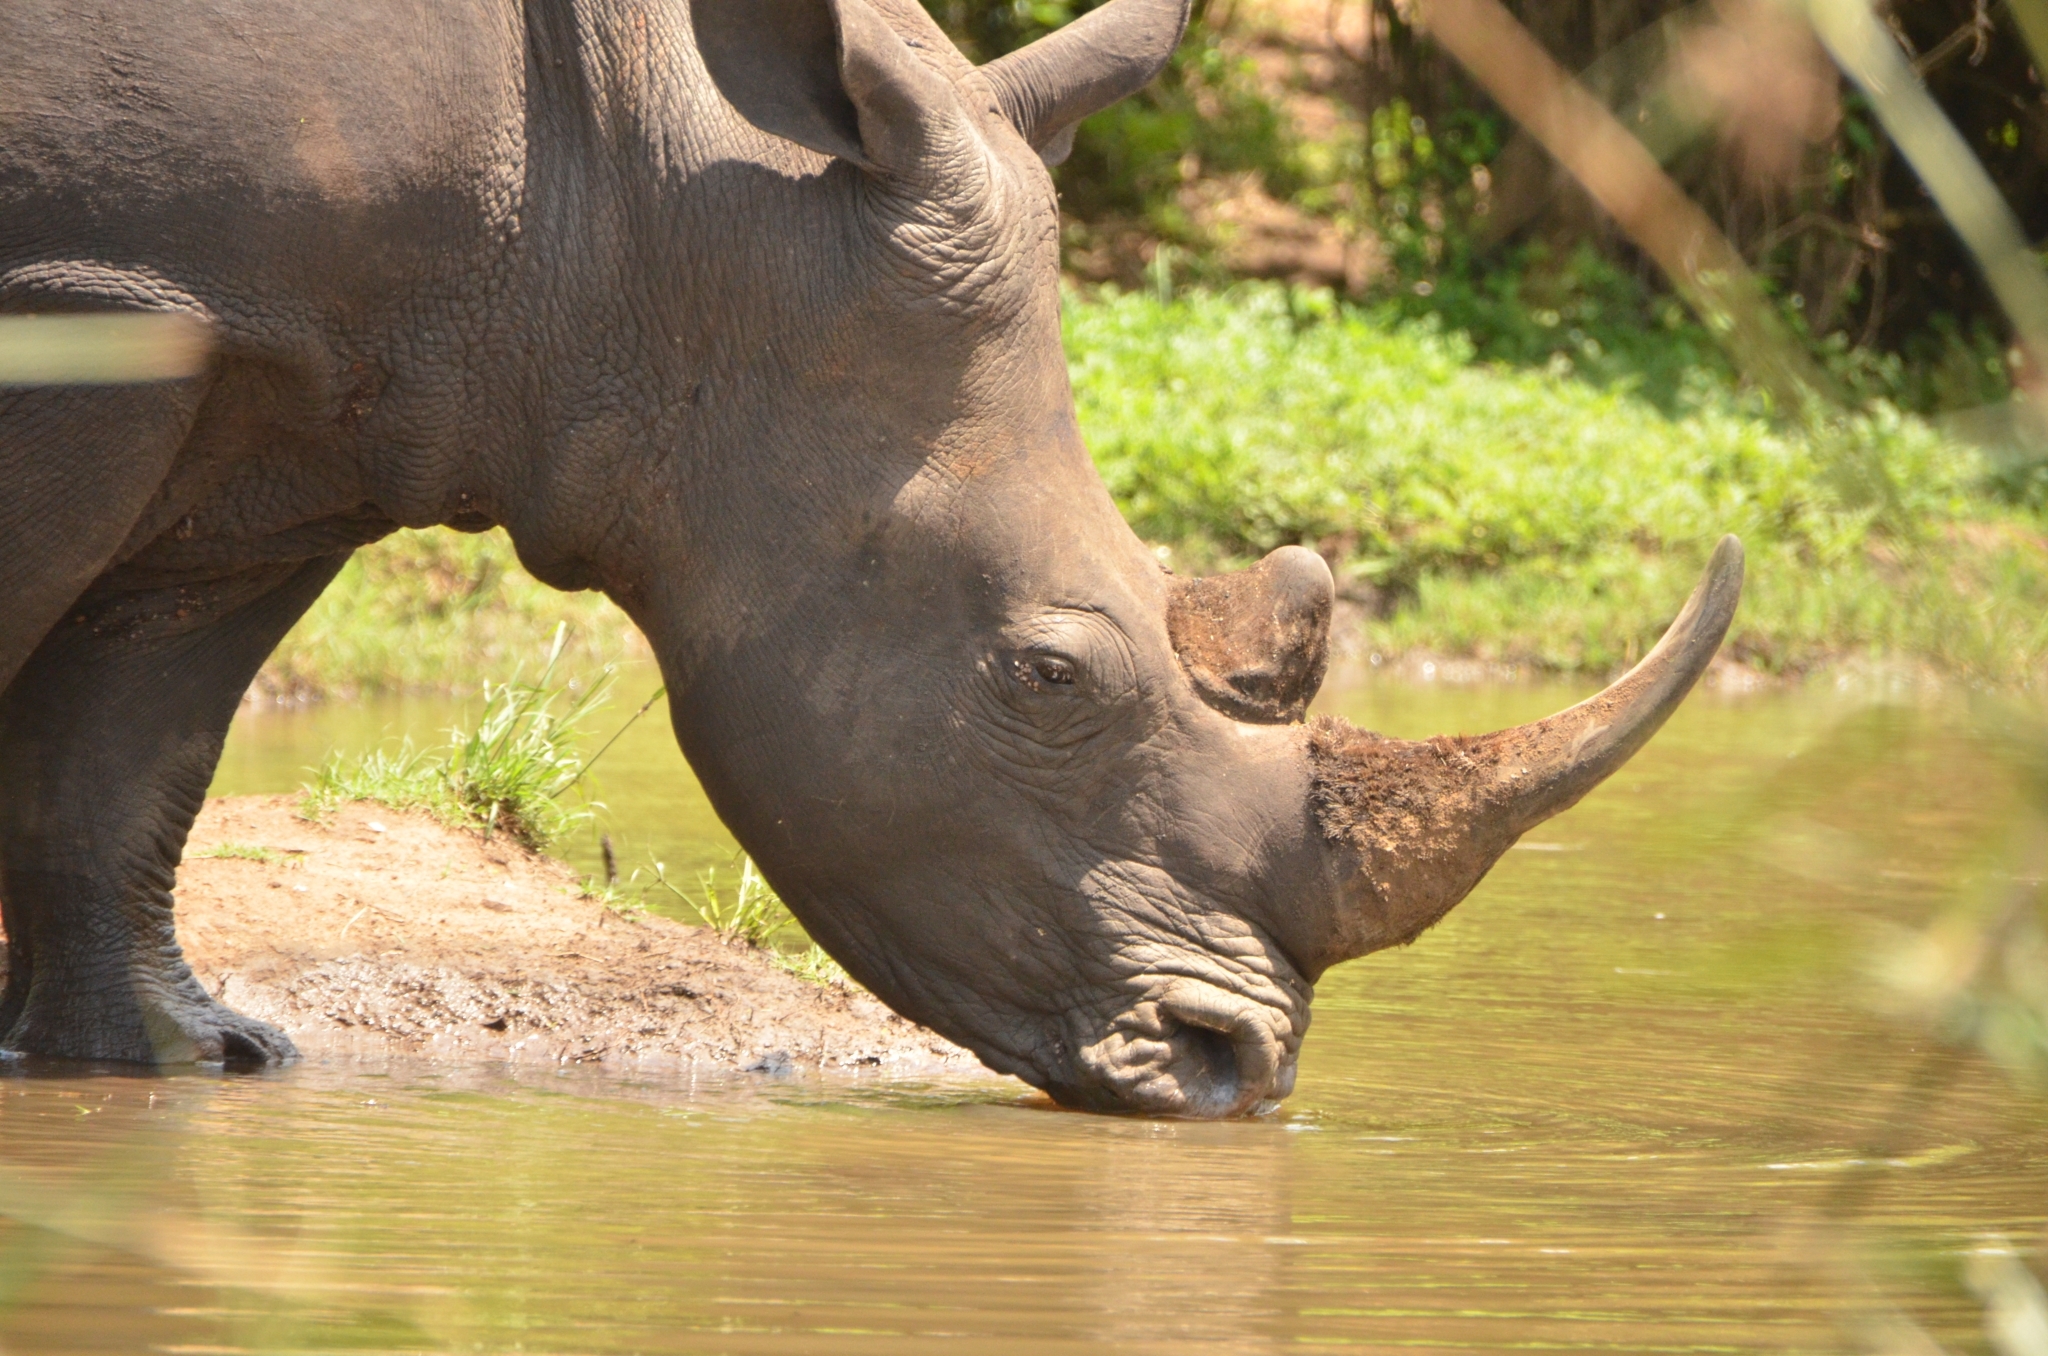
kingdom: Animalia
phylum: Chordata
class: Mammalia
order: Perissodactyla
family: Rhinocerotidae
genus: Ceratotherium
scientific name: Ceratotherium simum
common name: White rhinoceros
